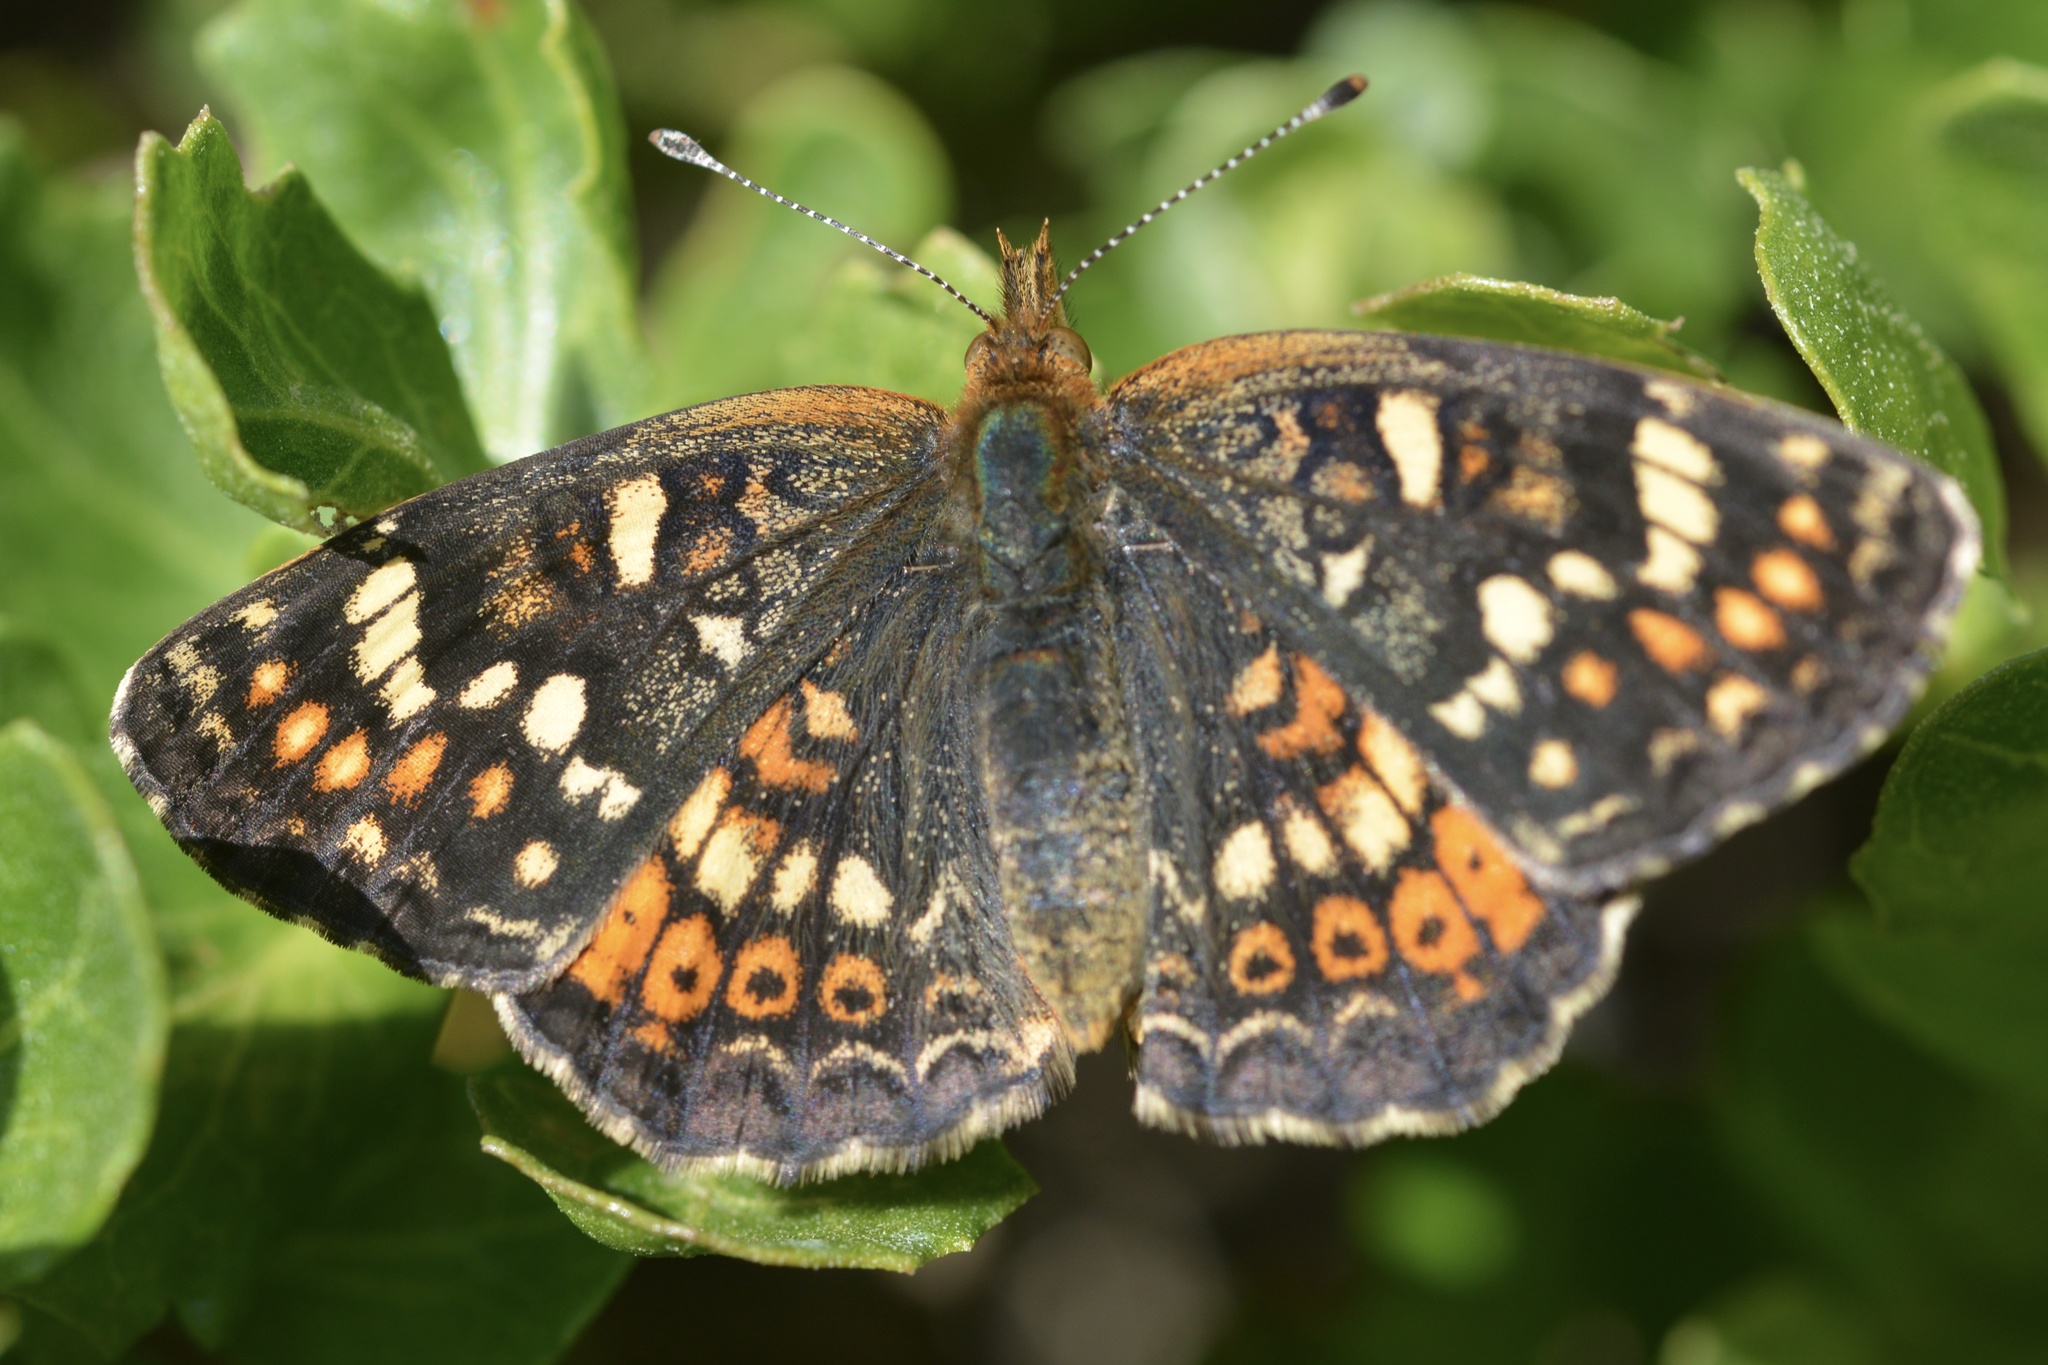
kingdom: Animalia
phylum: Arthropoda
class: Insecta
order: Lepidoptera
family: Nymphalidae
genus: Phyciodes
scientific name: Phyciodes tharos
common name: Pearl crescent
